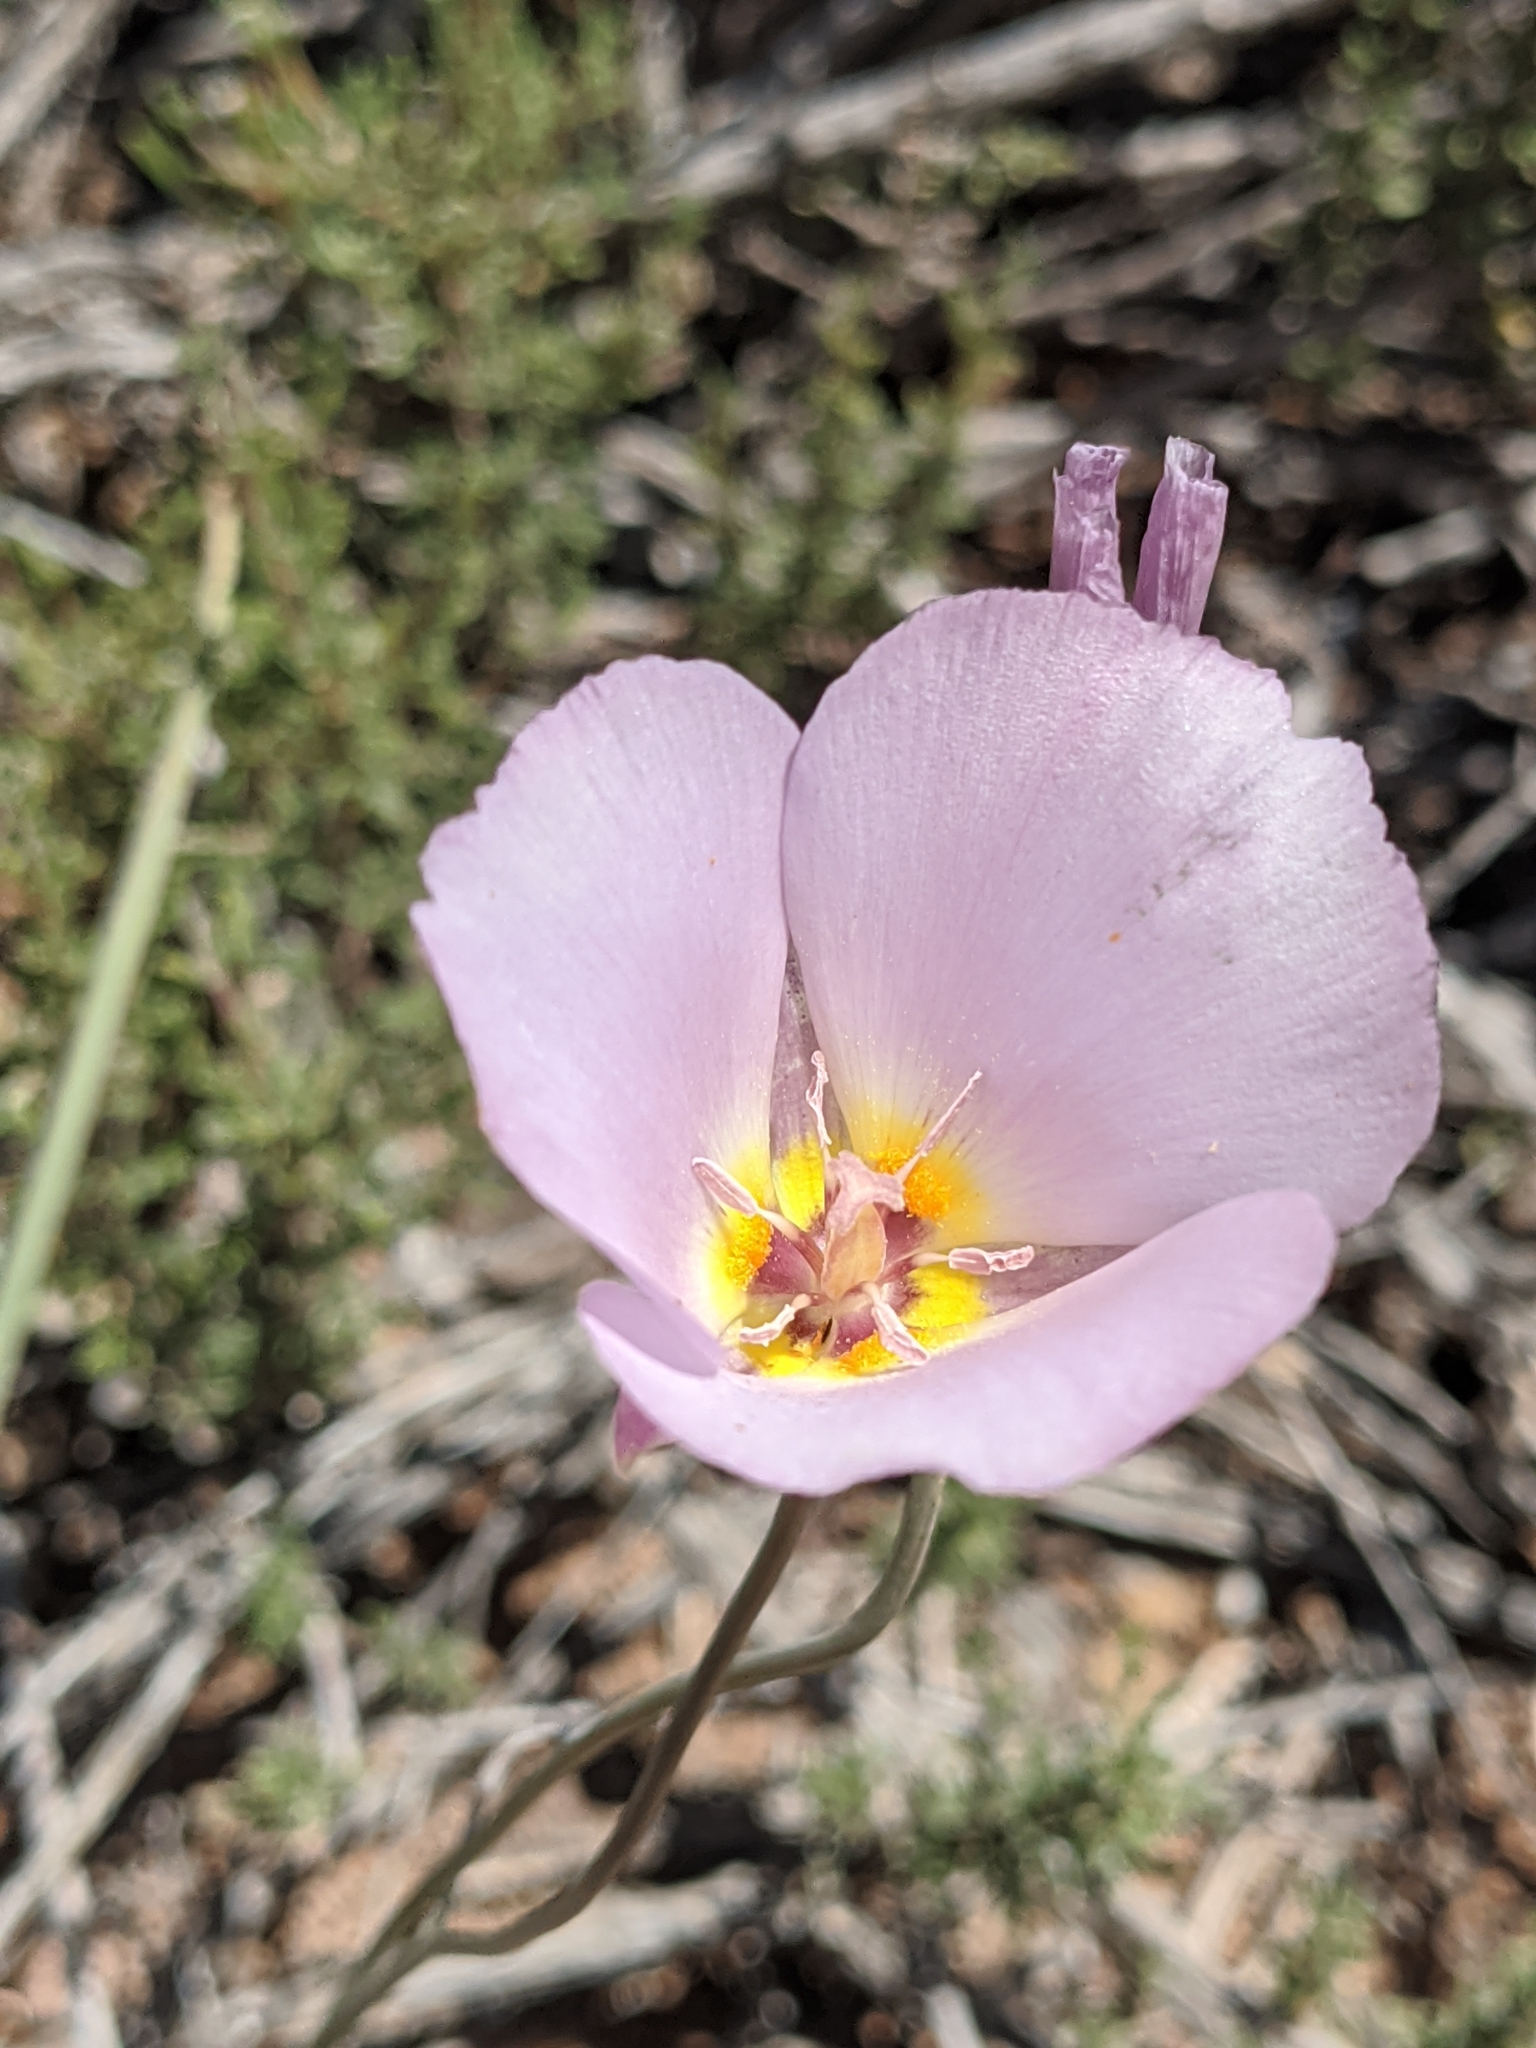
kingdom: Plantae
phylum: Tracheophyta
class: Liliopsida
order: Liliales
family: Liliaceae
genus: Calochortus
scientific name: Calochortus flexuosus
